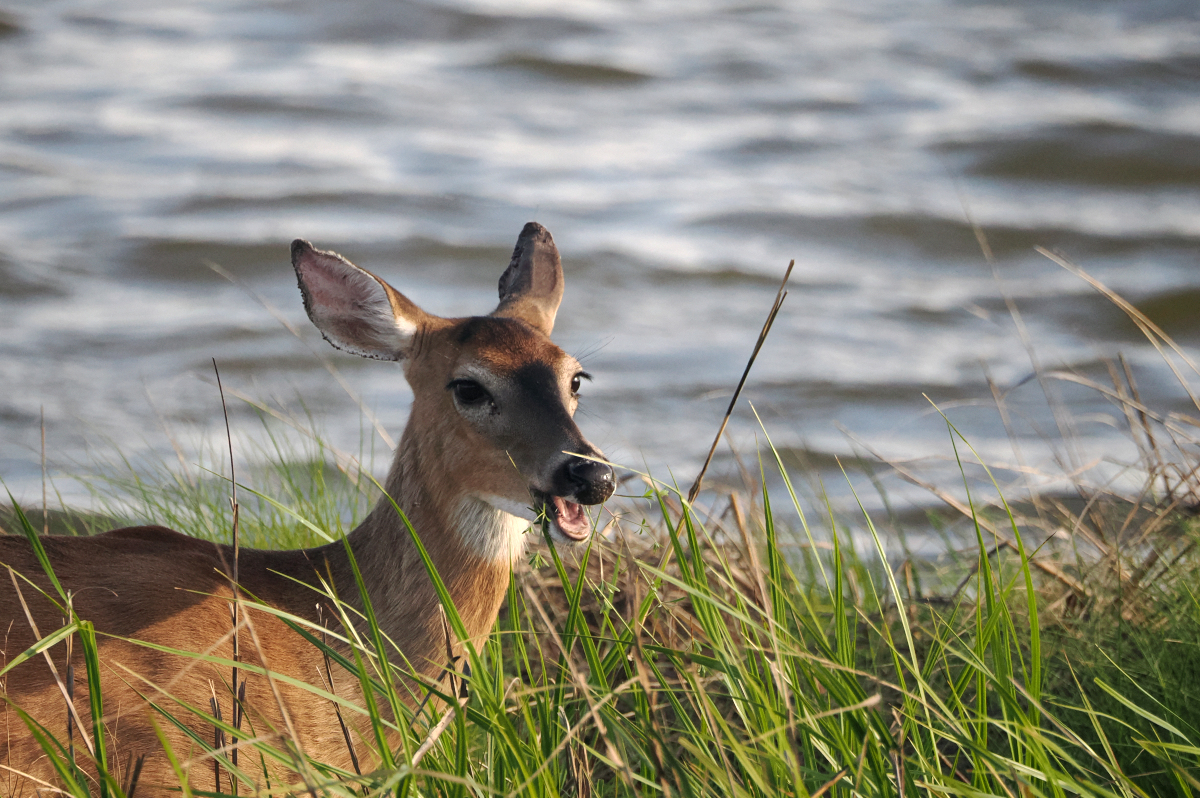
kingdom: Animalia
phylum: Chordata
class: Mammalia
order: Artiodactyla
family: Cervidae
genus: Odocoileus
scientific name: Odocoileus virginianus
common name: White-tailed deer
